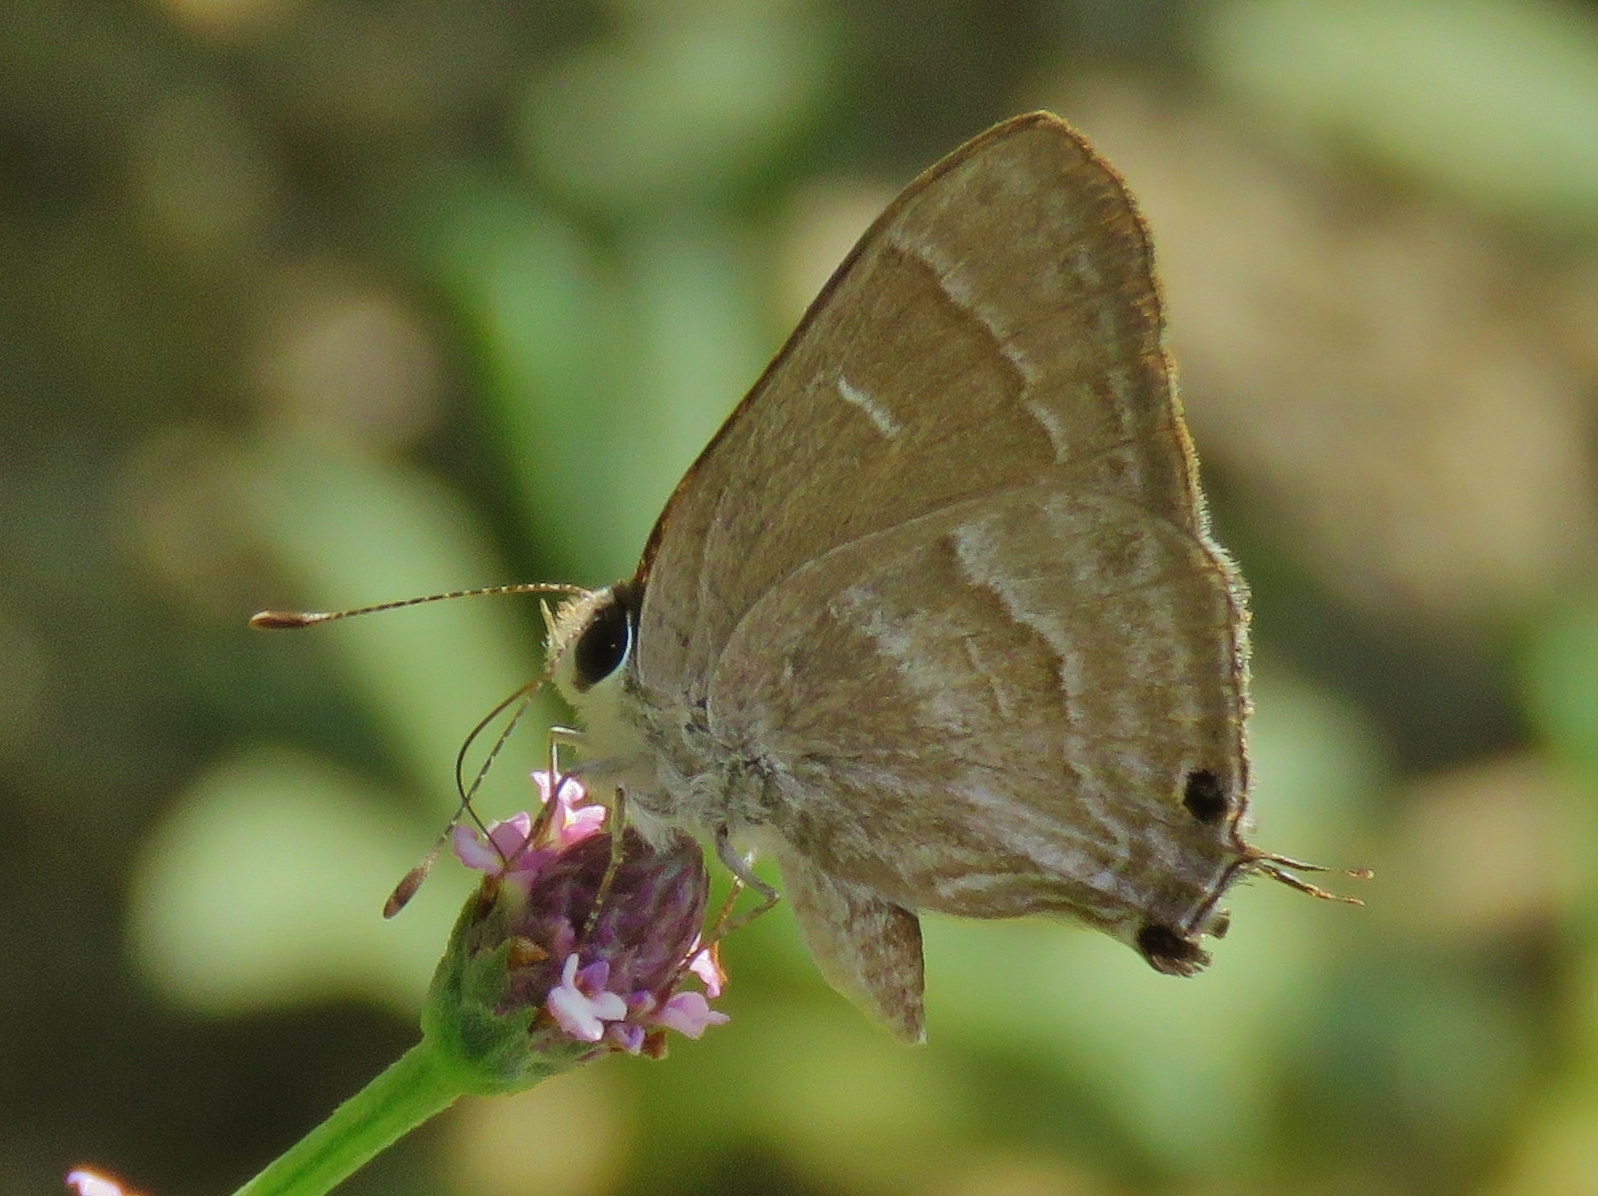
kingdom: Animalia
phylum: Arthropoda
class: Insecta
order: Lepidoptera
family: Lycaenidae
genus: Strymon
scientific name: Strymon
